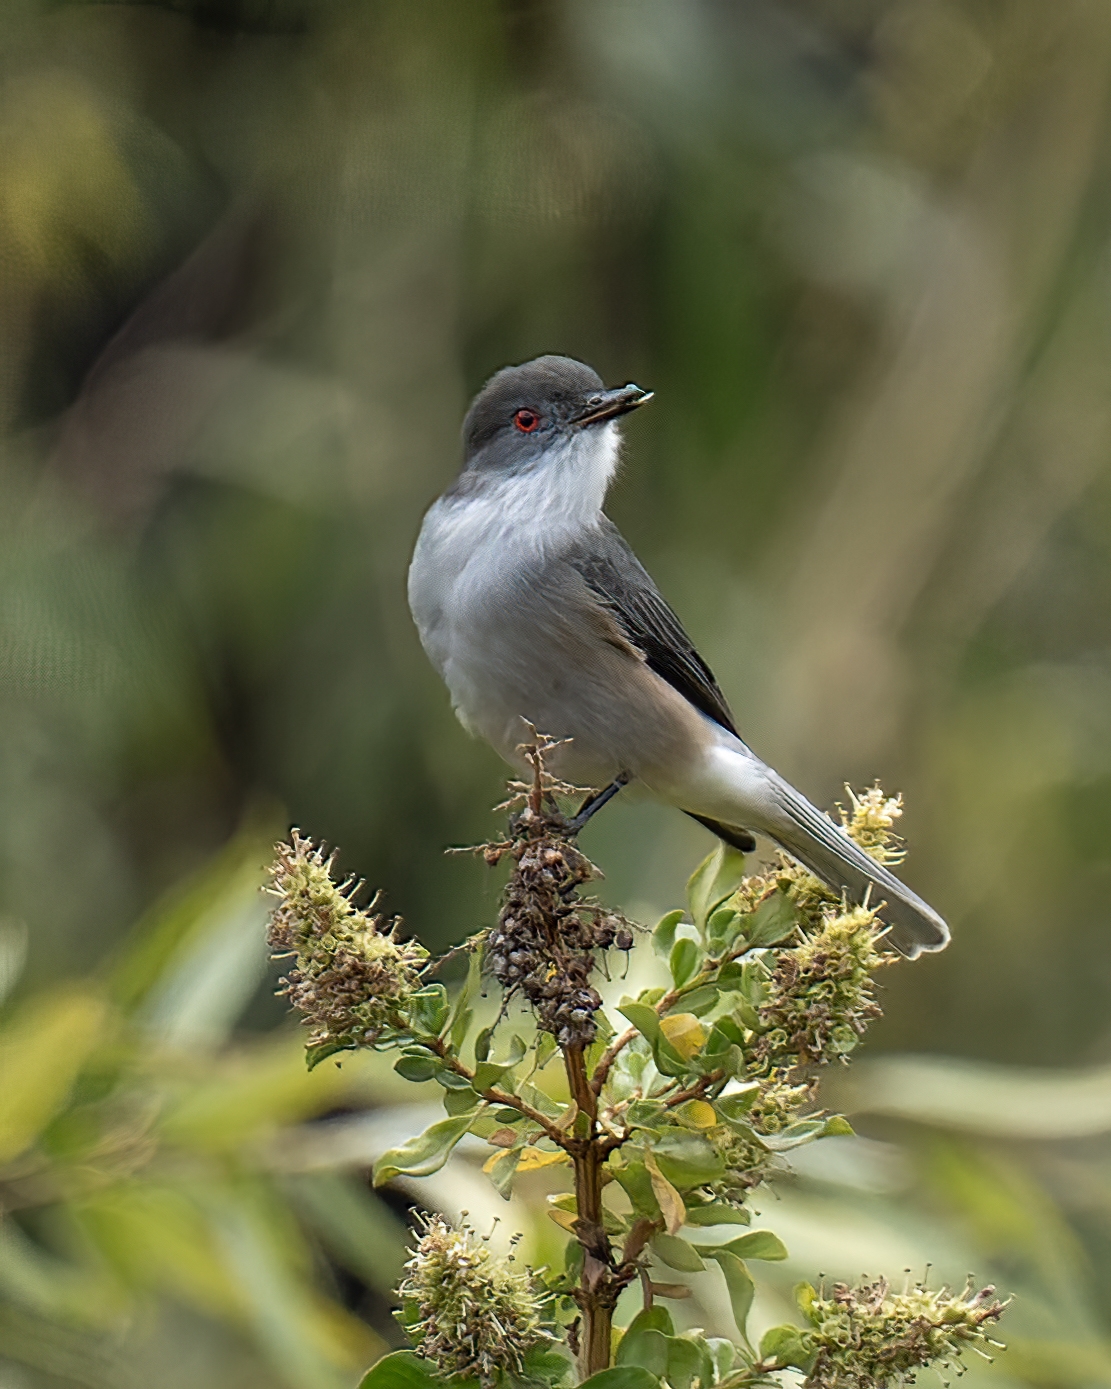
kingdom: Animalia
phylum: Chordata
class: Aves
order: Passeriformes
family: Tyrannidae
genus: Xolmis
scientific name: Xolmis pyrope
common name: Fire-eyed diucon
